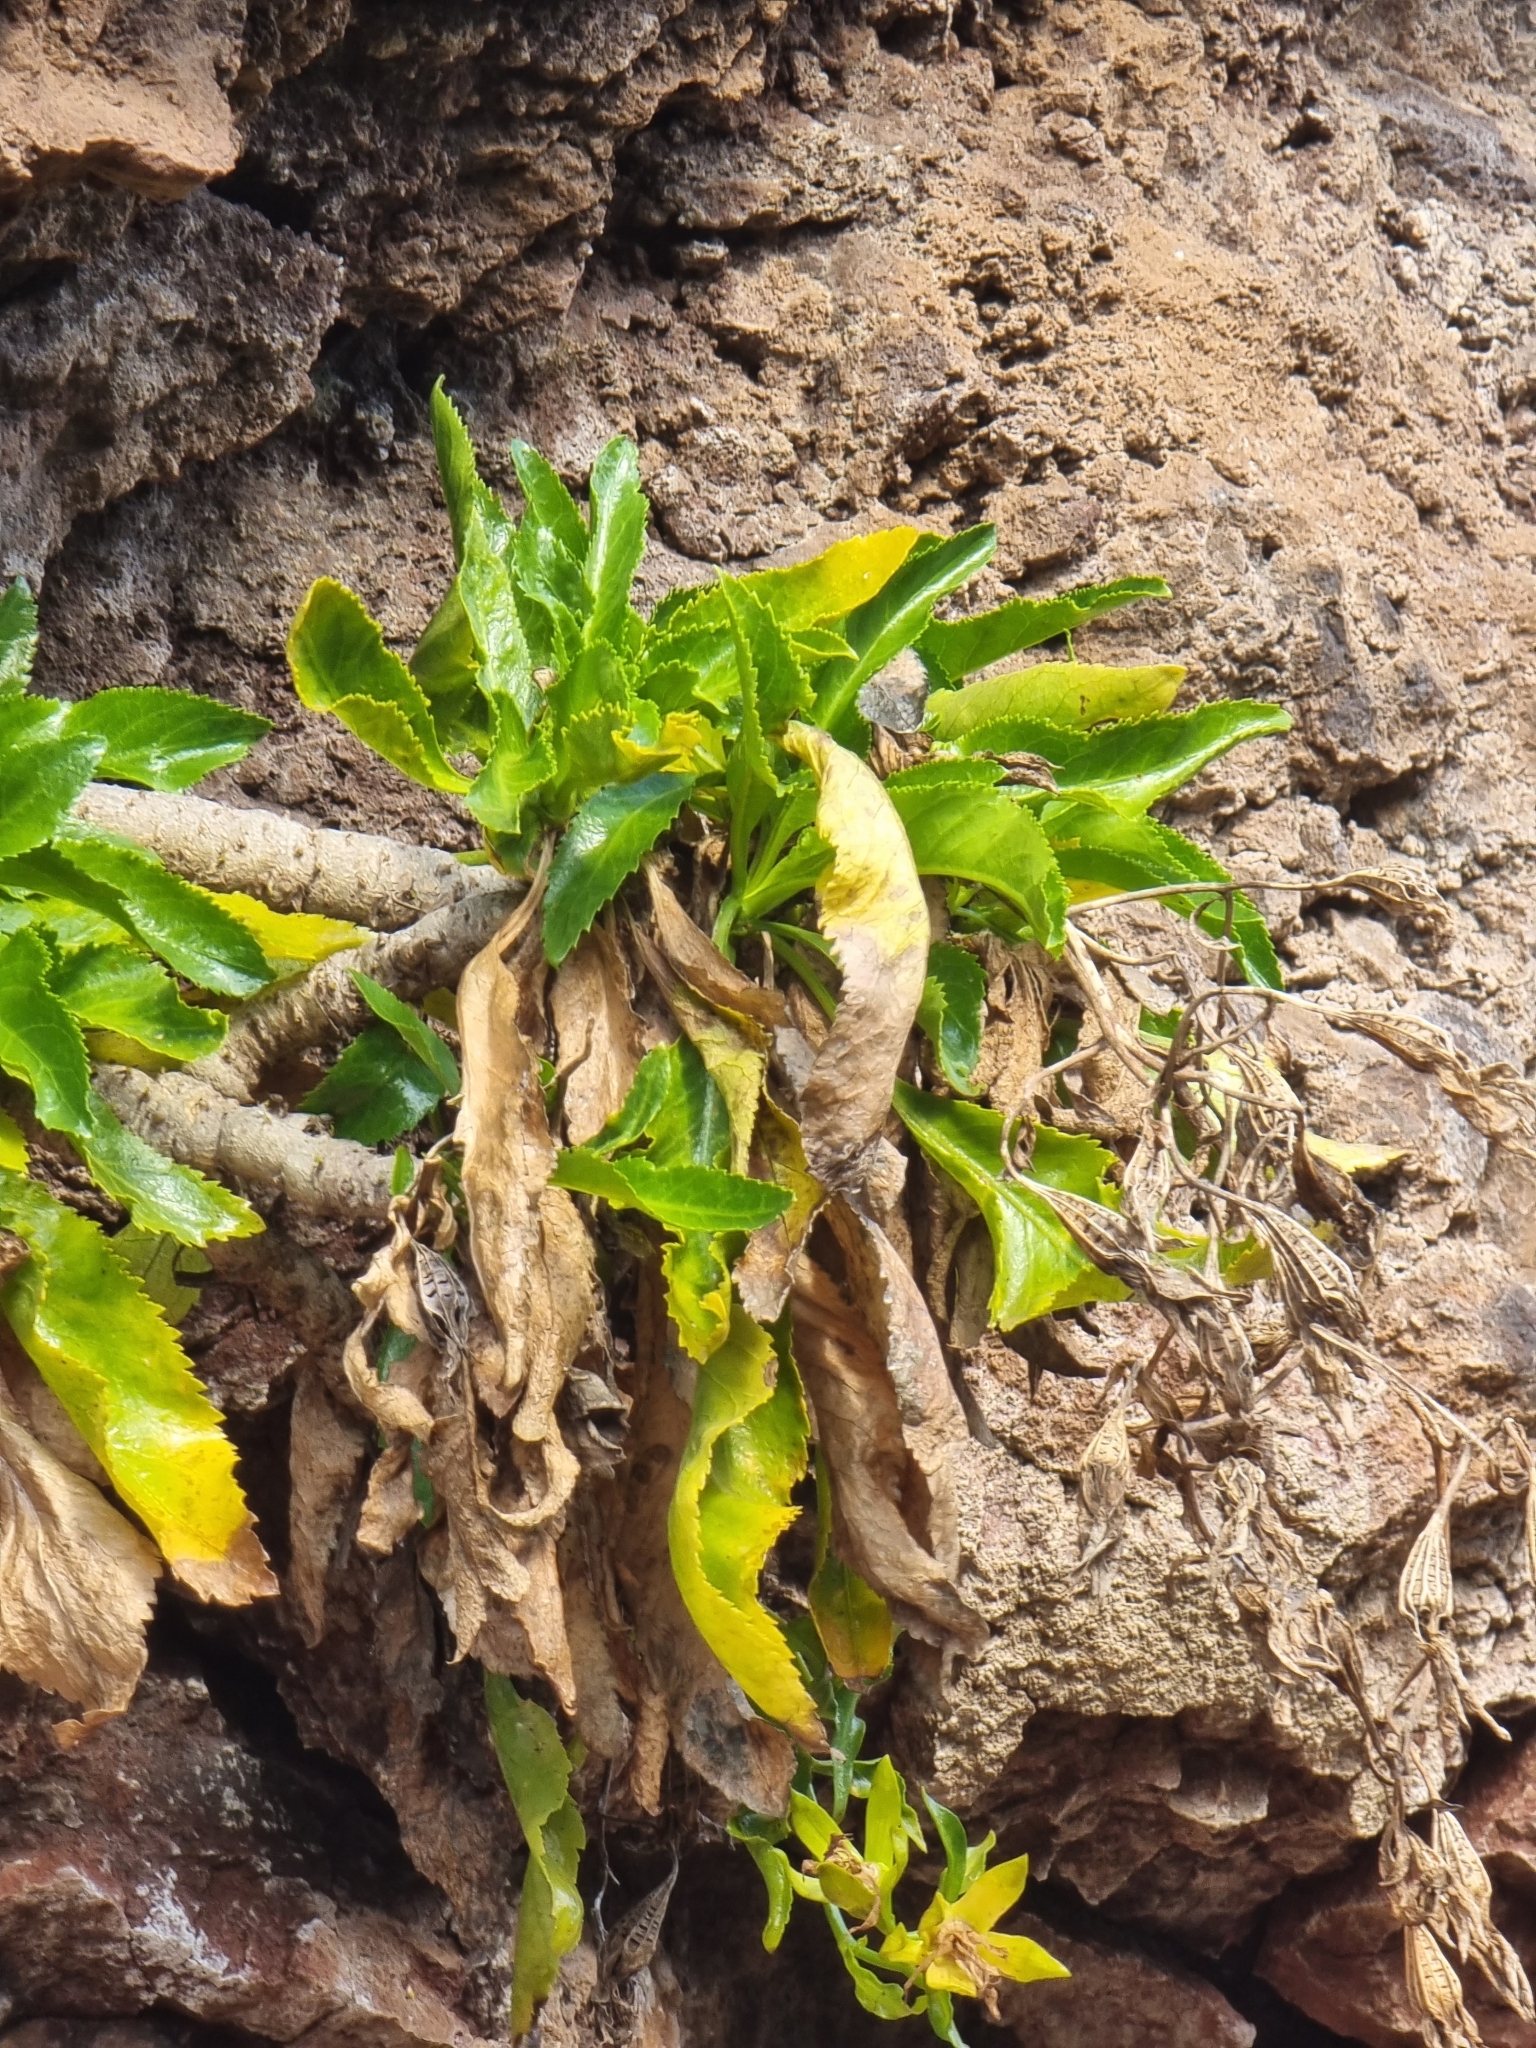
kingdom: Plantae
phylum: Tracheophyta
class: Magnoliopsida
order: Asterales
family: Campanulaceae
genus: Musschia
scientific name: Musschia aurea
